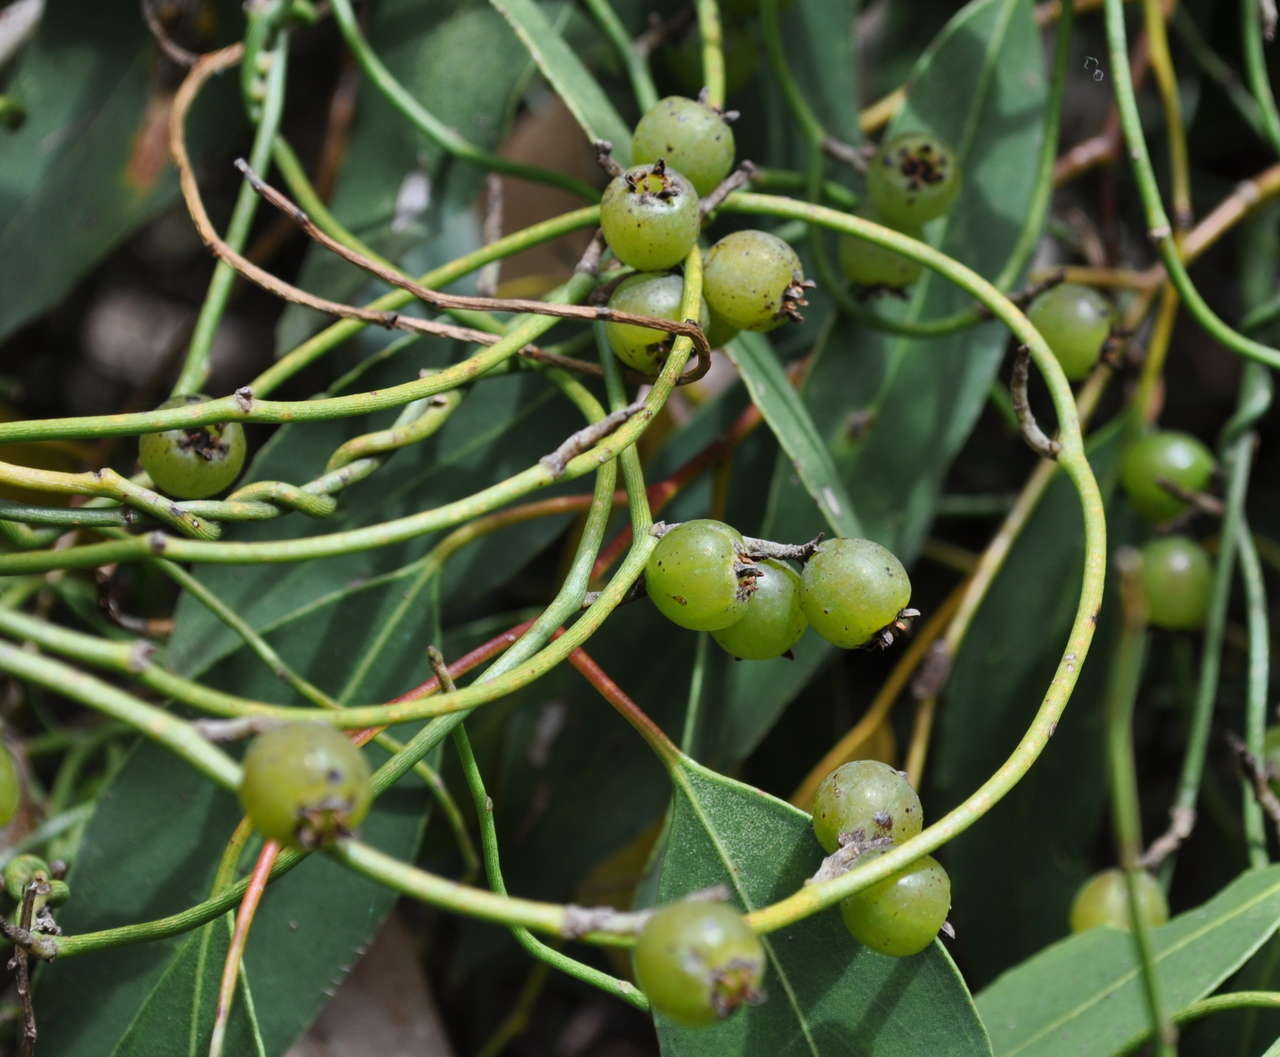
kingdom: Plantae
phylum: Tracheophyta
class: Magnoliopsida
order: Laurales
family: Lauraceae
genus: Cassytha
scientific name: Cassytha melantha
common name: Mallee stranglevine
